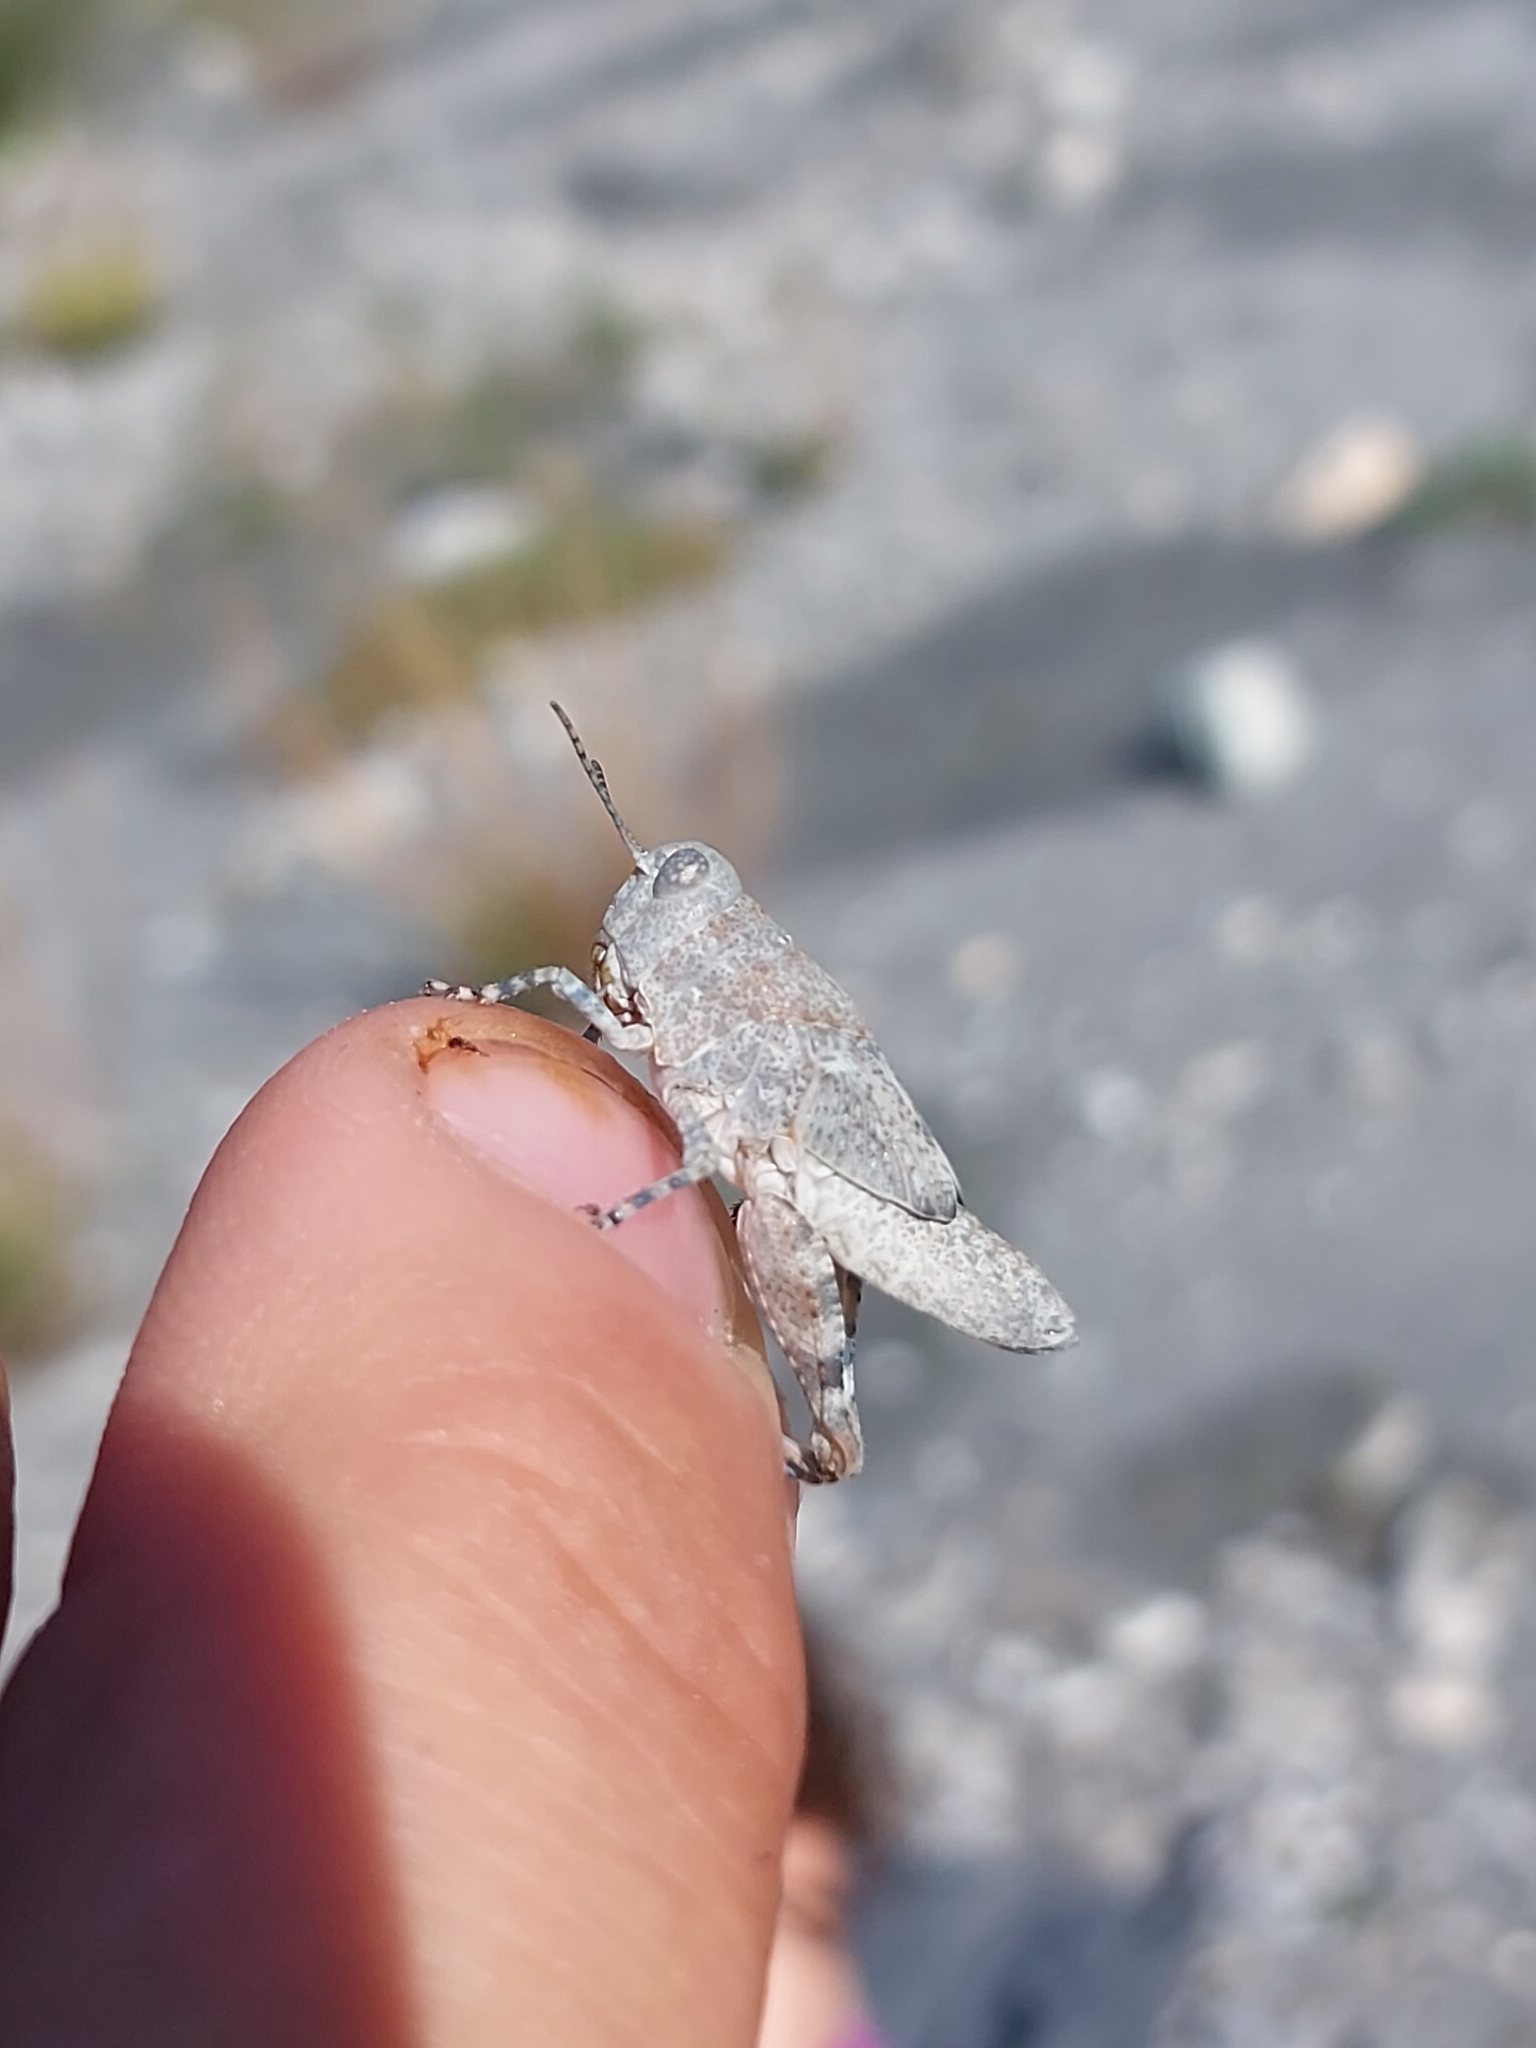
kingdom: Animalia
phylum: Arthropoda
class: Insecta
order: Orthoptera
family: Acrididae
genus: Sphingonotus
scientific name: Sphingonotus caerulans
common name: Blue-winged locust
